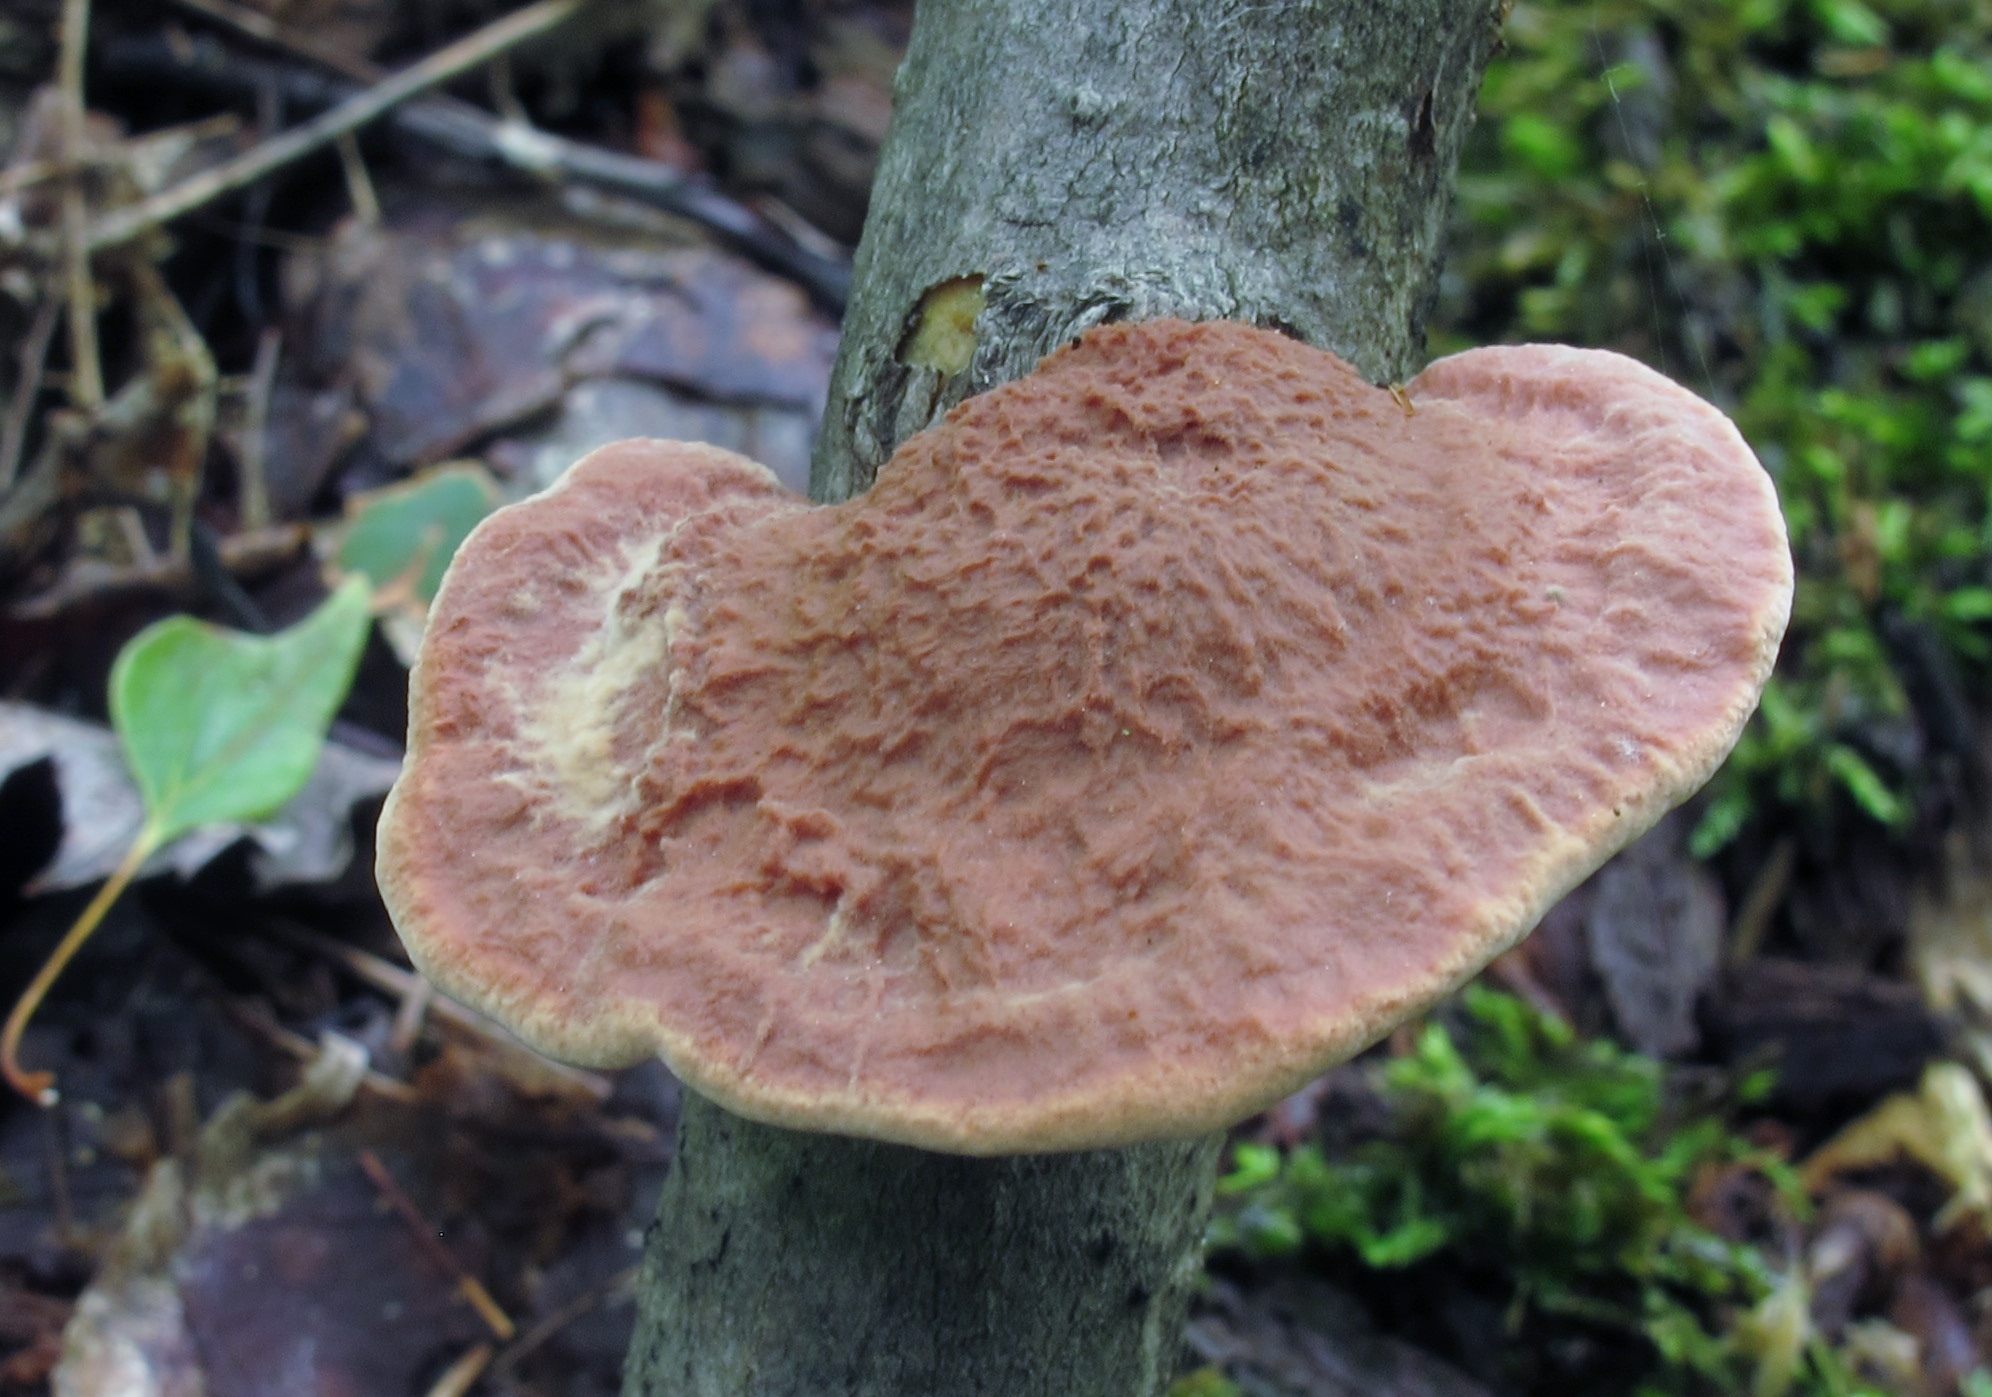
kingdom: Fungi
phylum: Basidiomycota
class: Agaricomycetes
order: Polyporales
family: Phanerochaetaceae
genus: Hapalopilus
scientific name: Hapalopilus rutilans
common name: Tender nesting polypore
